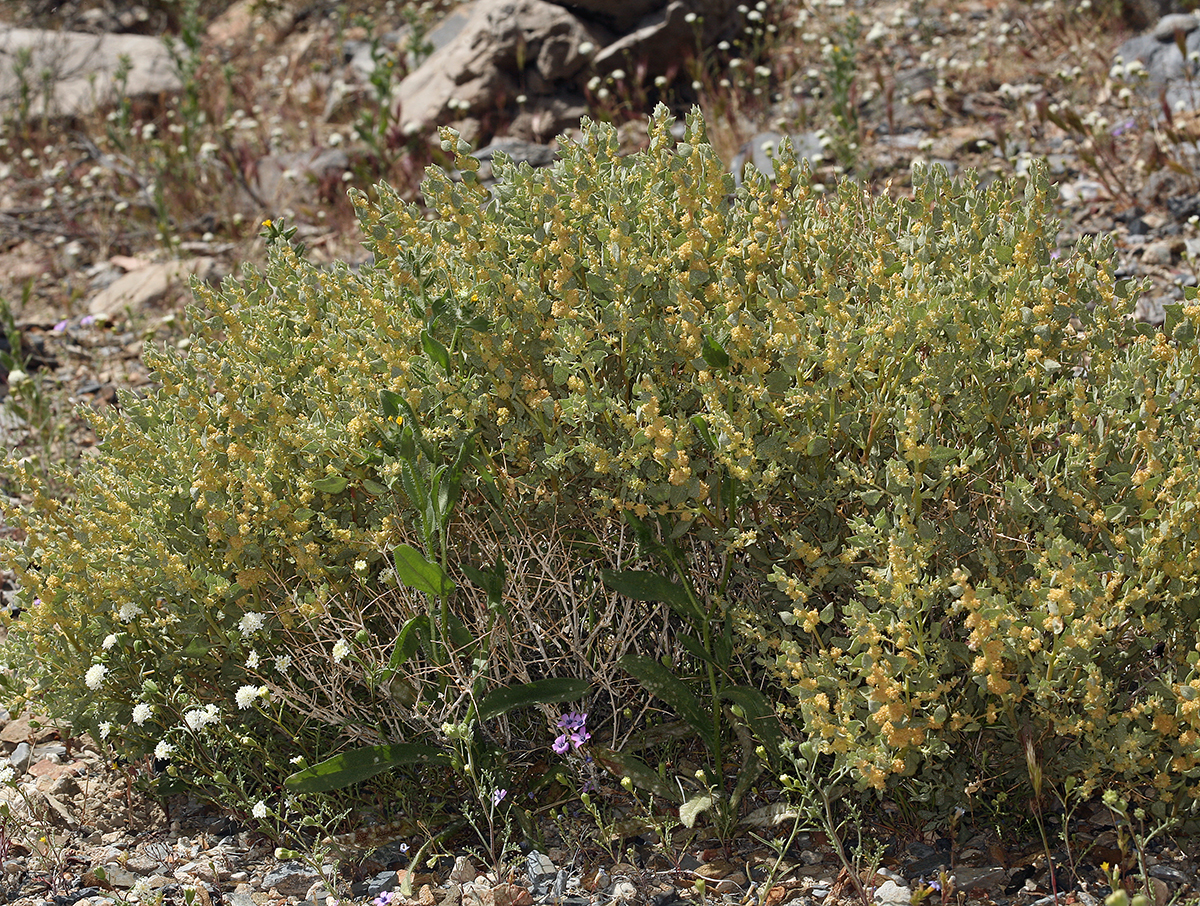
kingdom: Plantae
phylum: Tracheophyta
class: Magnoliopsida
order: Caryophyllales
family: Amaranthaceae
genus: Atriplex
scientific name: Atriplex confertifolia
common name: Shadscale
